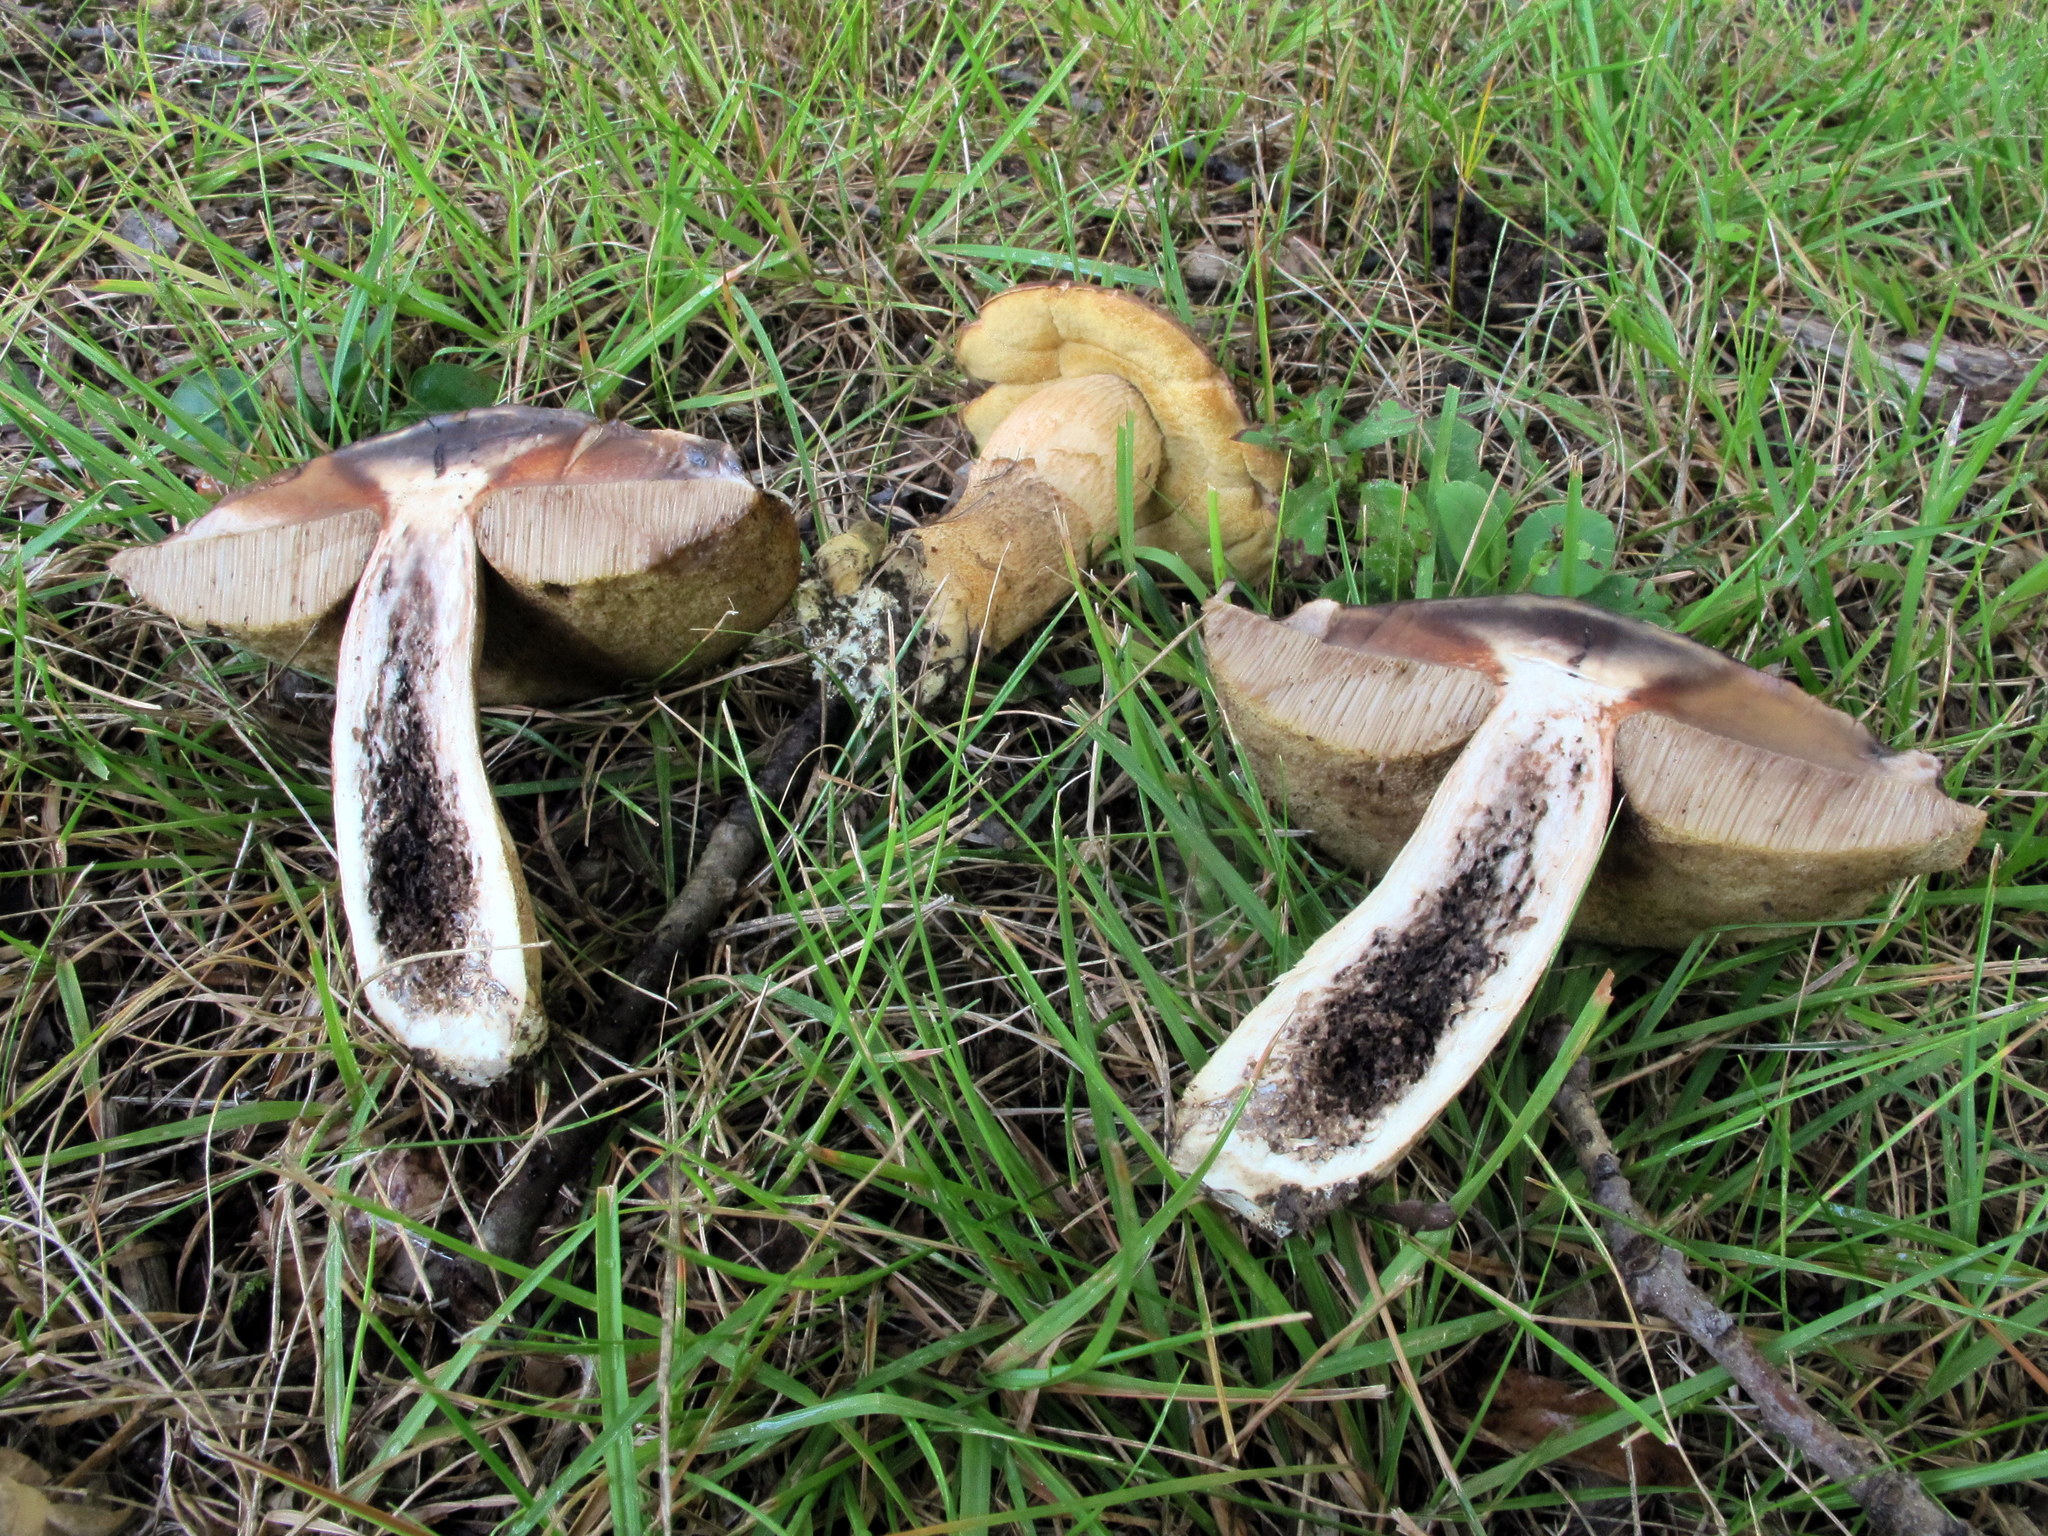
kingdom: Fungi
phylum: Basidiomycota
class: Agaricomycetes
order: Boletales
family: Boletaceae
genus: Leccinellum
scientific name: Leccinellum crocipodium
